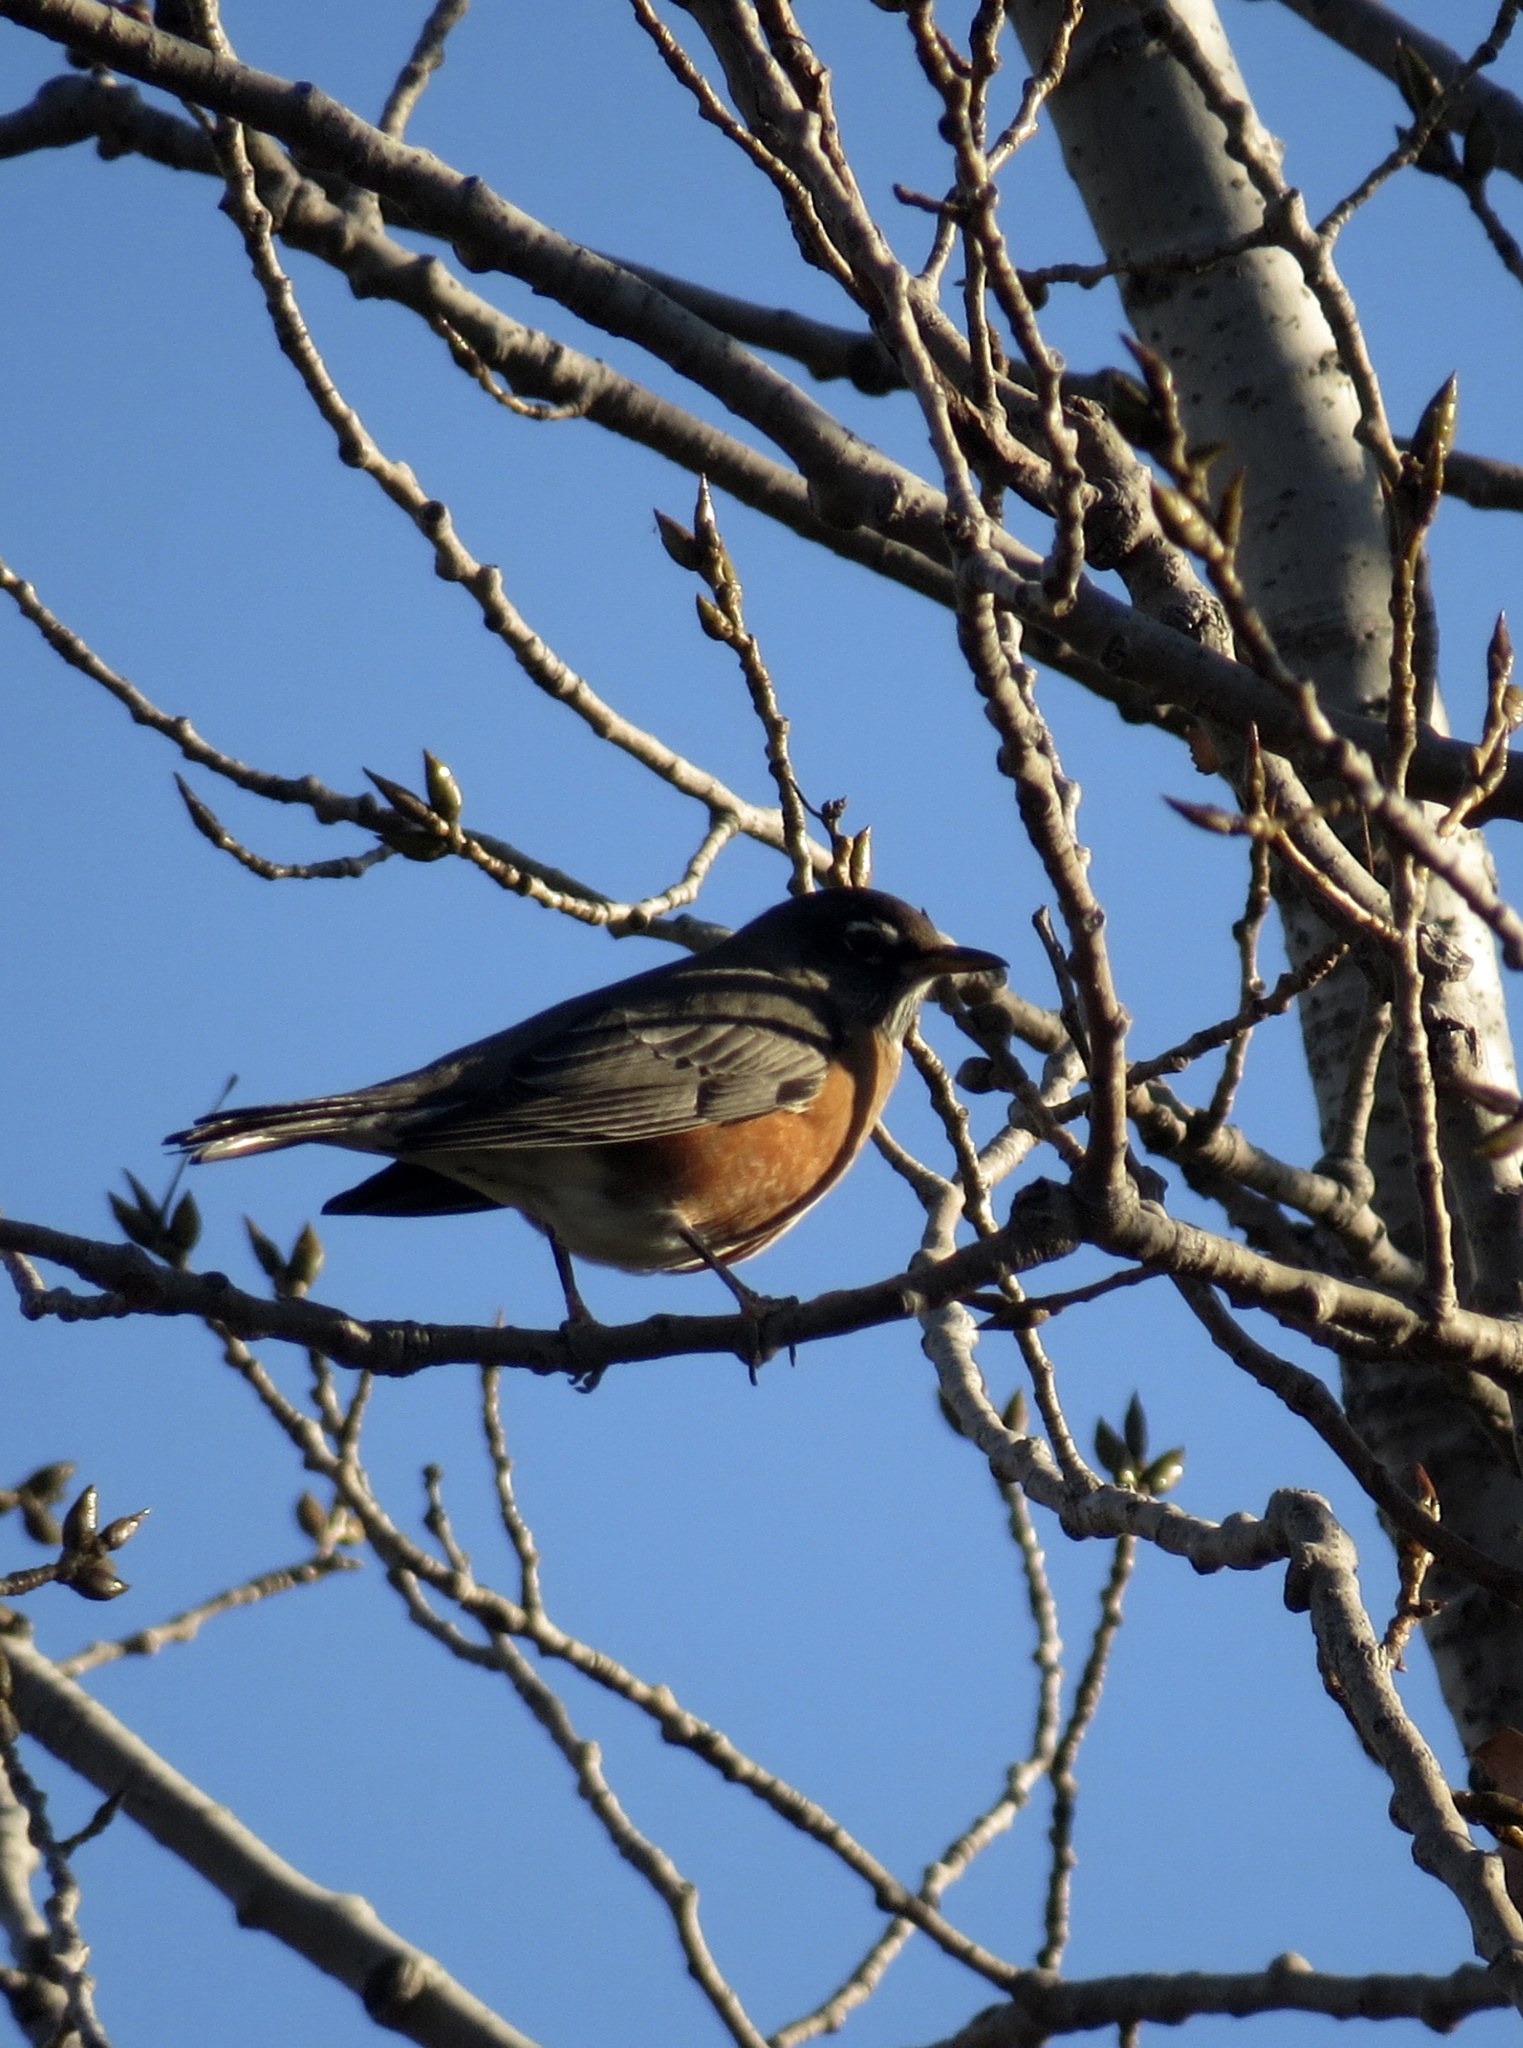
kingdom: Animalia
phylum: Chordata
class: Aves
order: Passeriformes
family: Turdidae
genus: Turdus
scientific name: Turdus migratorius
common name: American robin
